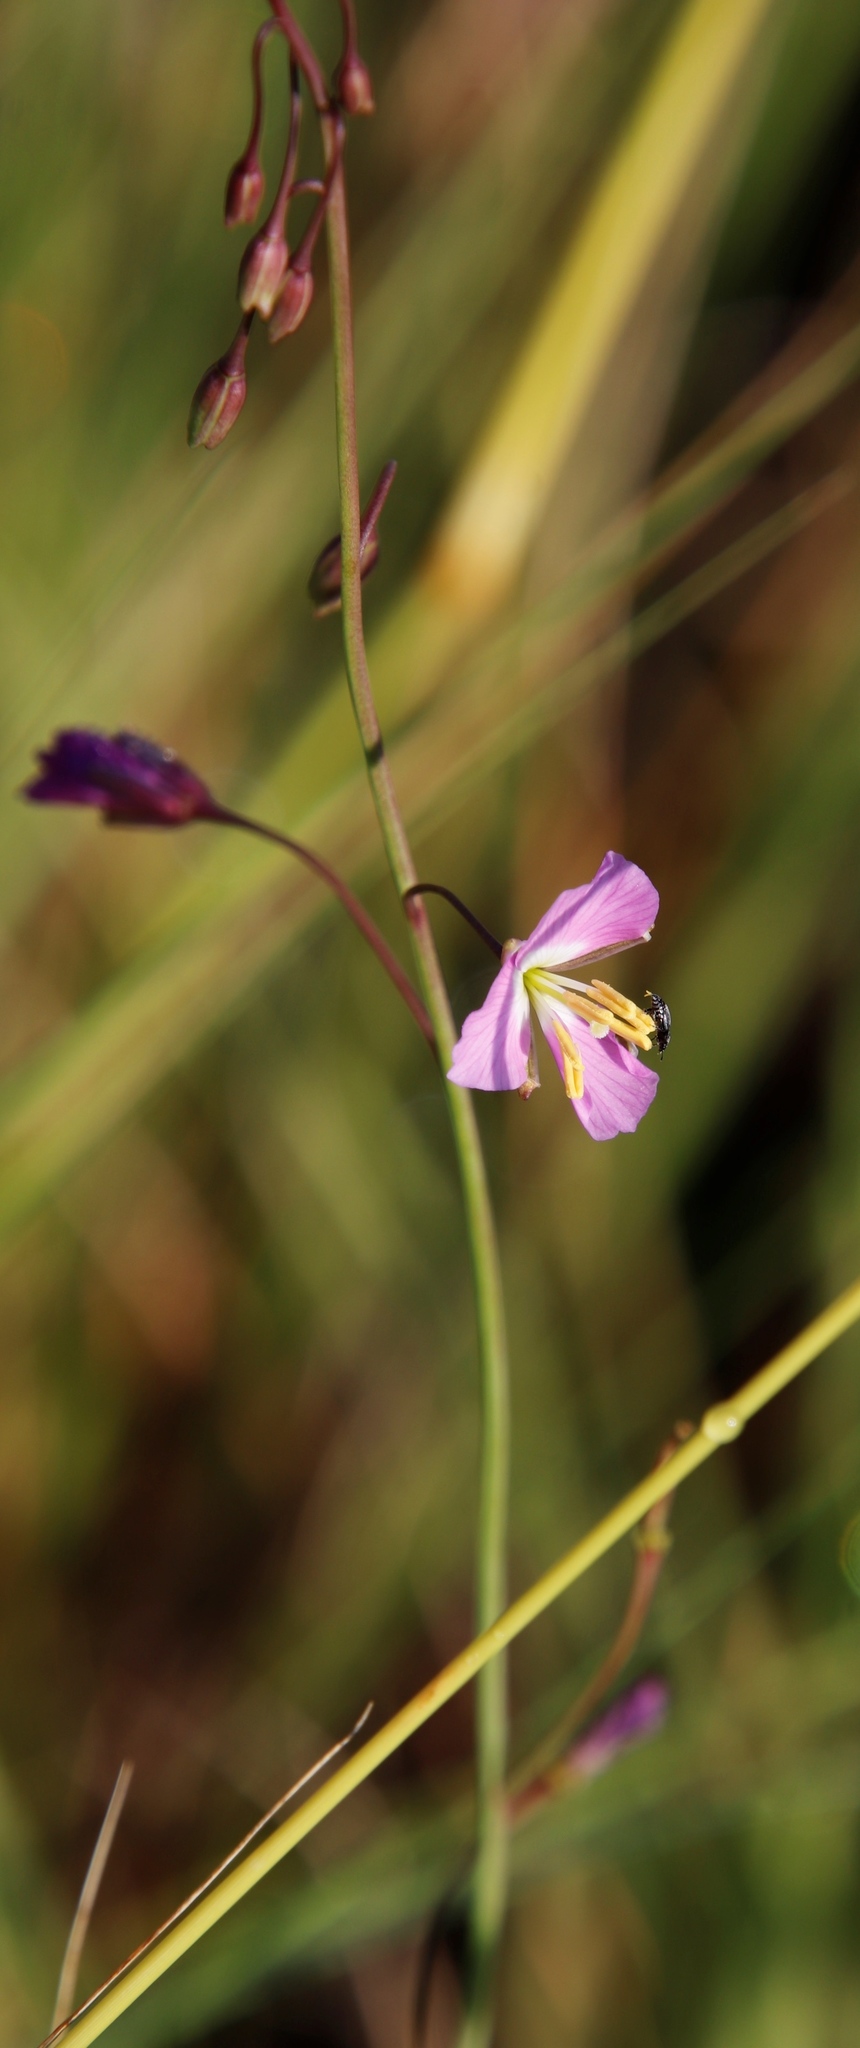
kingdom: Plantae
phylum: Tracheophyta
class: Magnoliopsida
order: Brassicales
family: Brassicaceae
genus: Heliophila
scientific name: Heliophila carnosa
